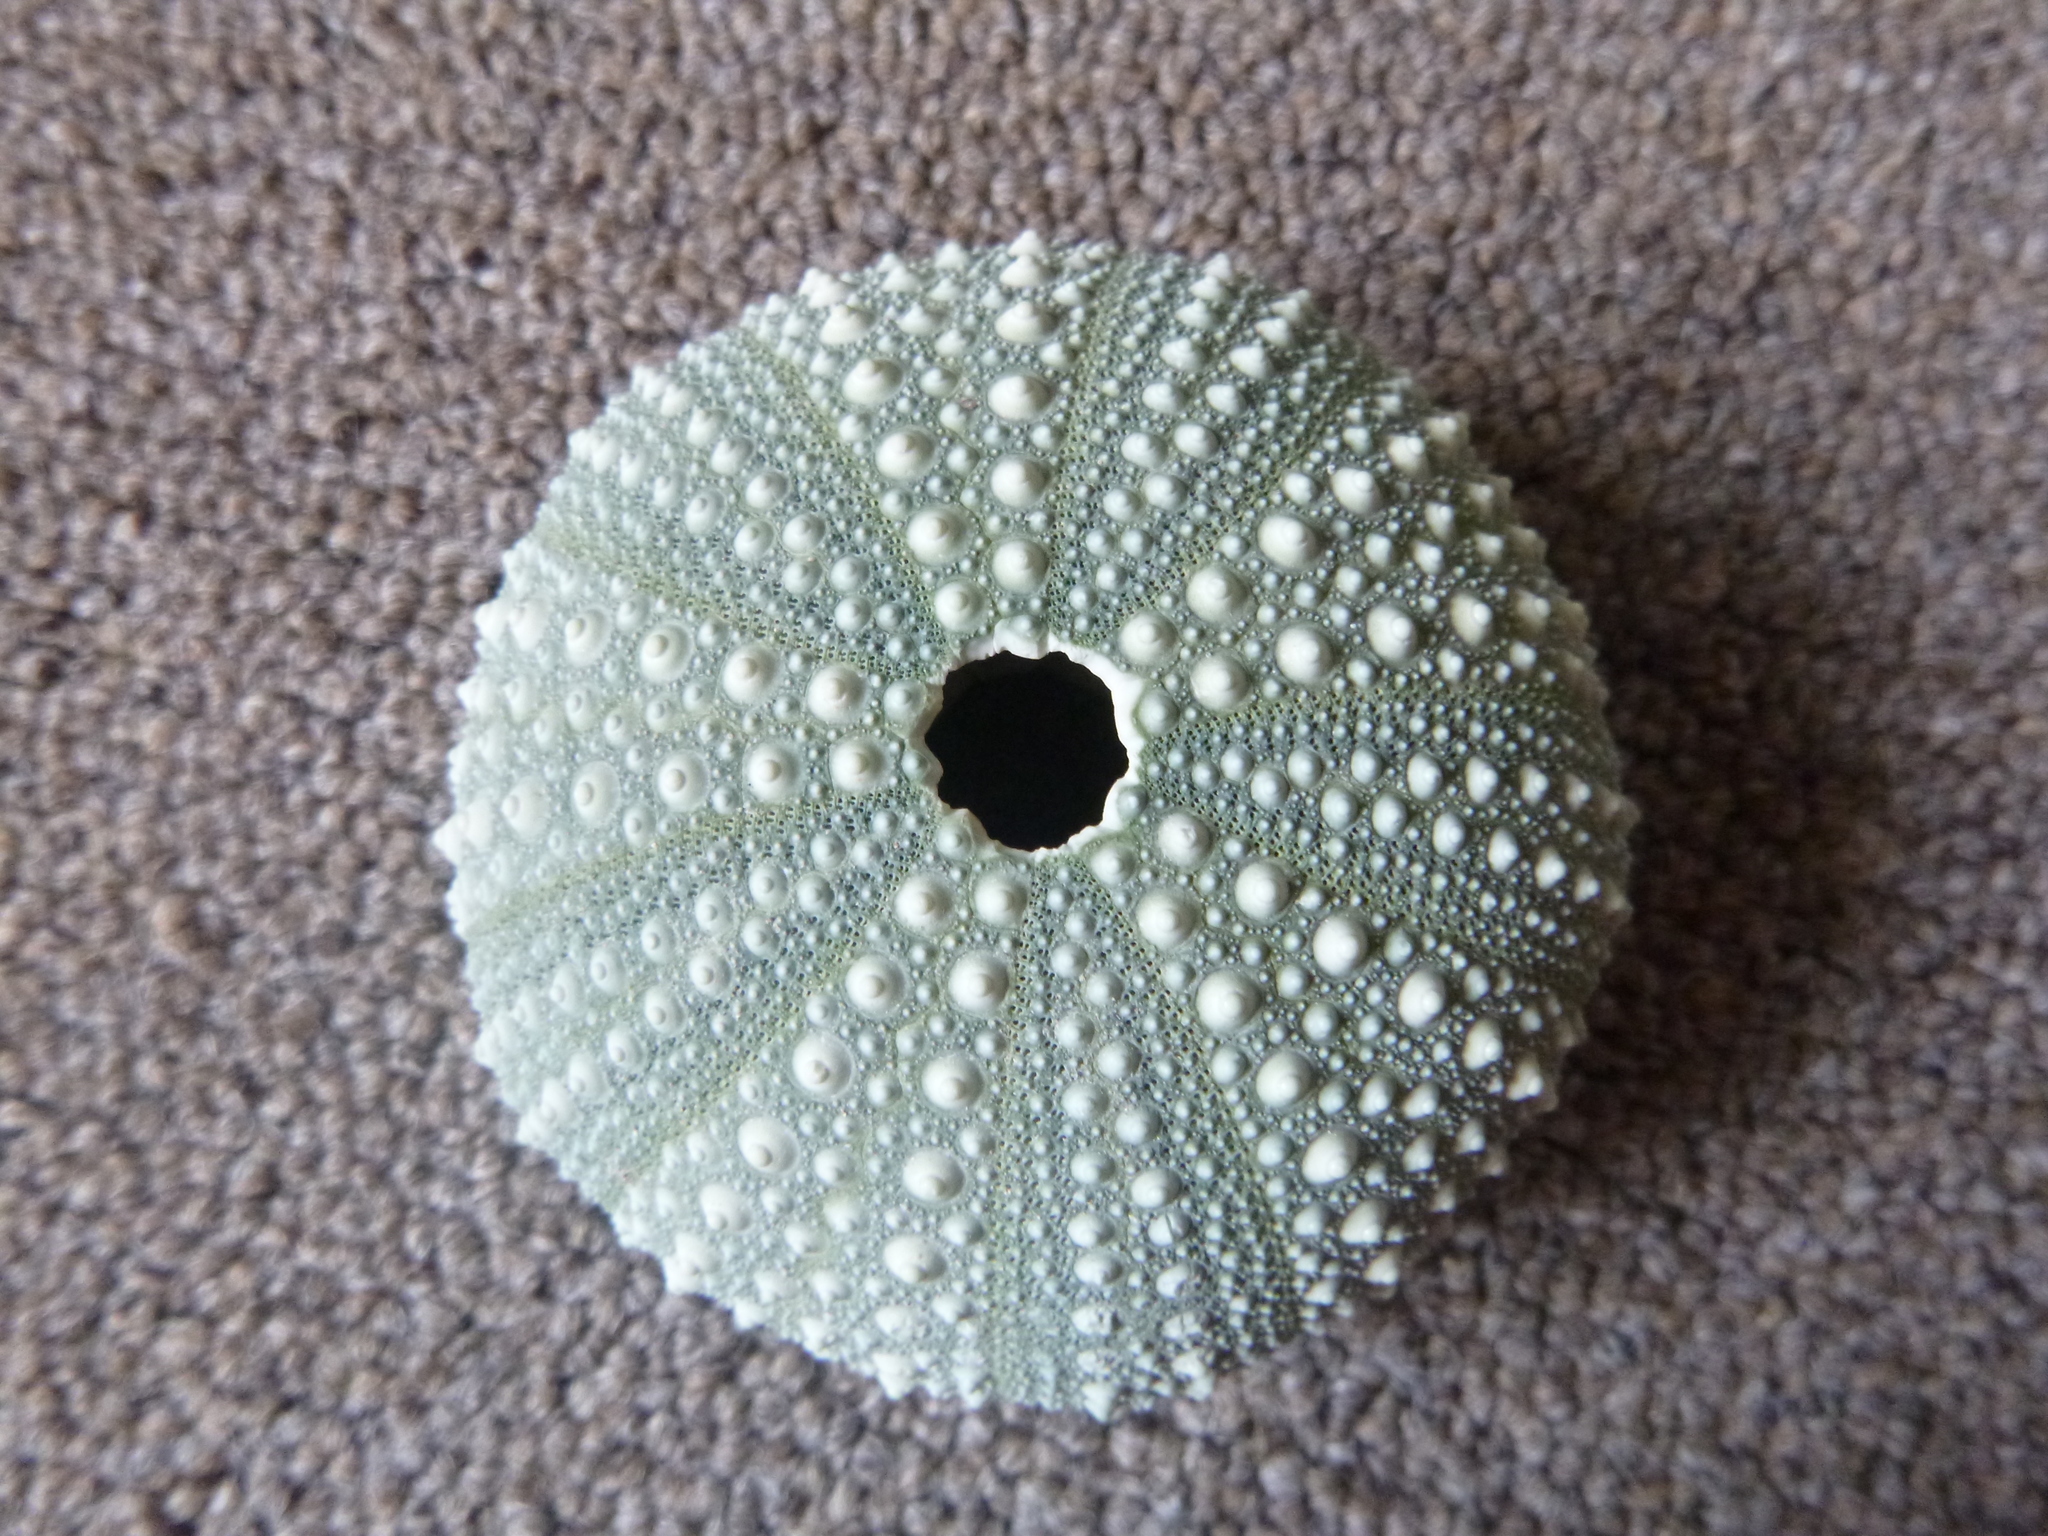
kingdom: Animalia
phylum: Echinodermata
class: Echinoidea
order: Camarodonta
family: Echinometridae
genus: Evechinus
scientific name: Evechinus chloroticus
